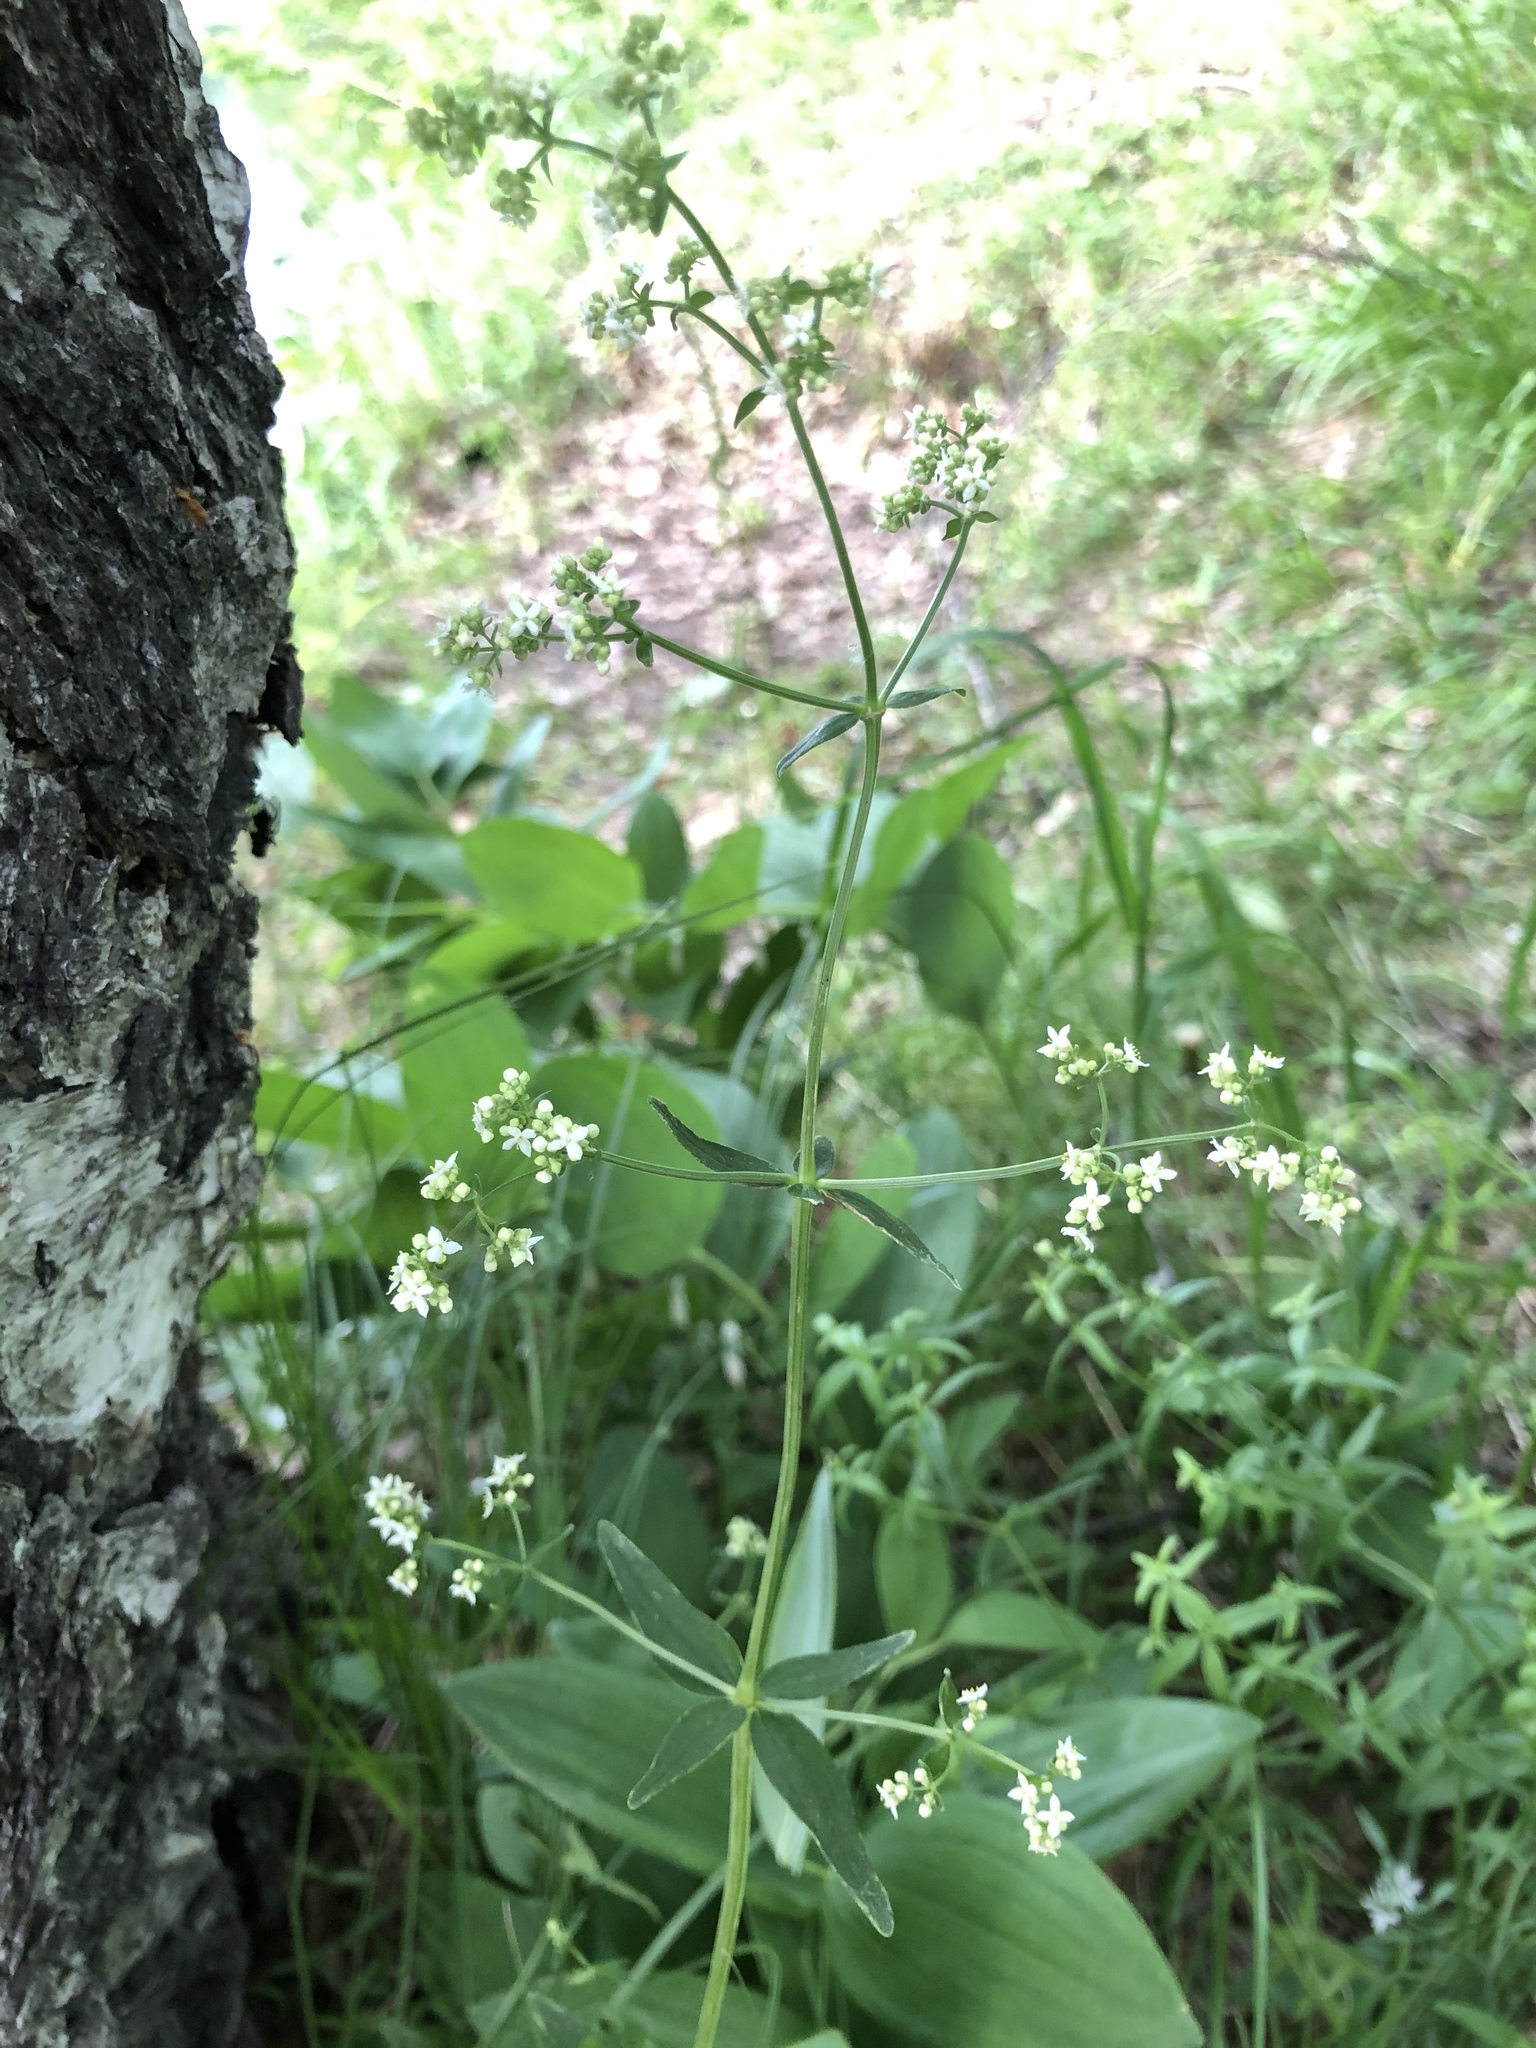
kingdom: Plantae
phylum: Tracheophyta
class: Magnoliopsida
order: Gentianales
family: Rubiaceae
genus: Galium
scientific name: Galium boreale
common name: Northern bedstraw
